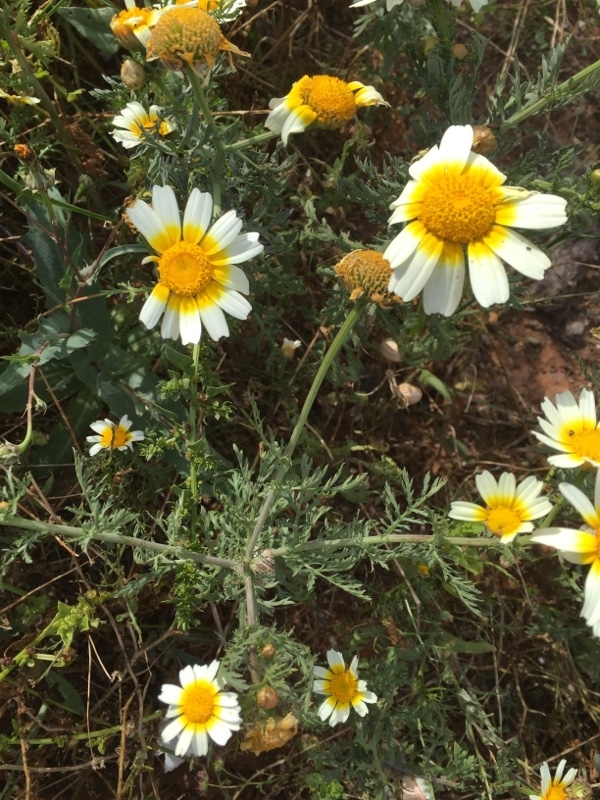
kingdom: Plantae
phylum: Tracheophyta
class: Magnoliopsida
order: Asterales
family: Asteraceae
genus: Glebionis
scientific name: Glebionis coronaria
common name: Crowndaisy
